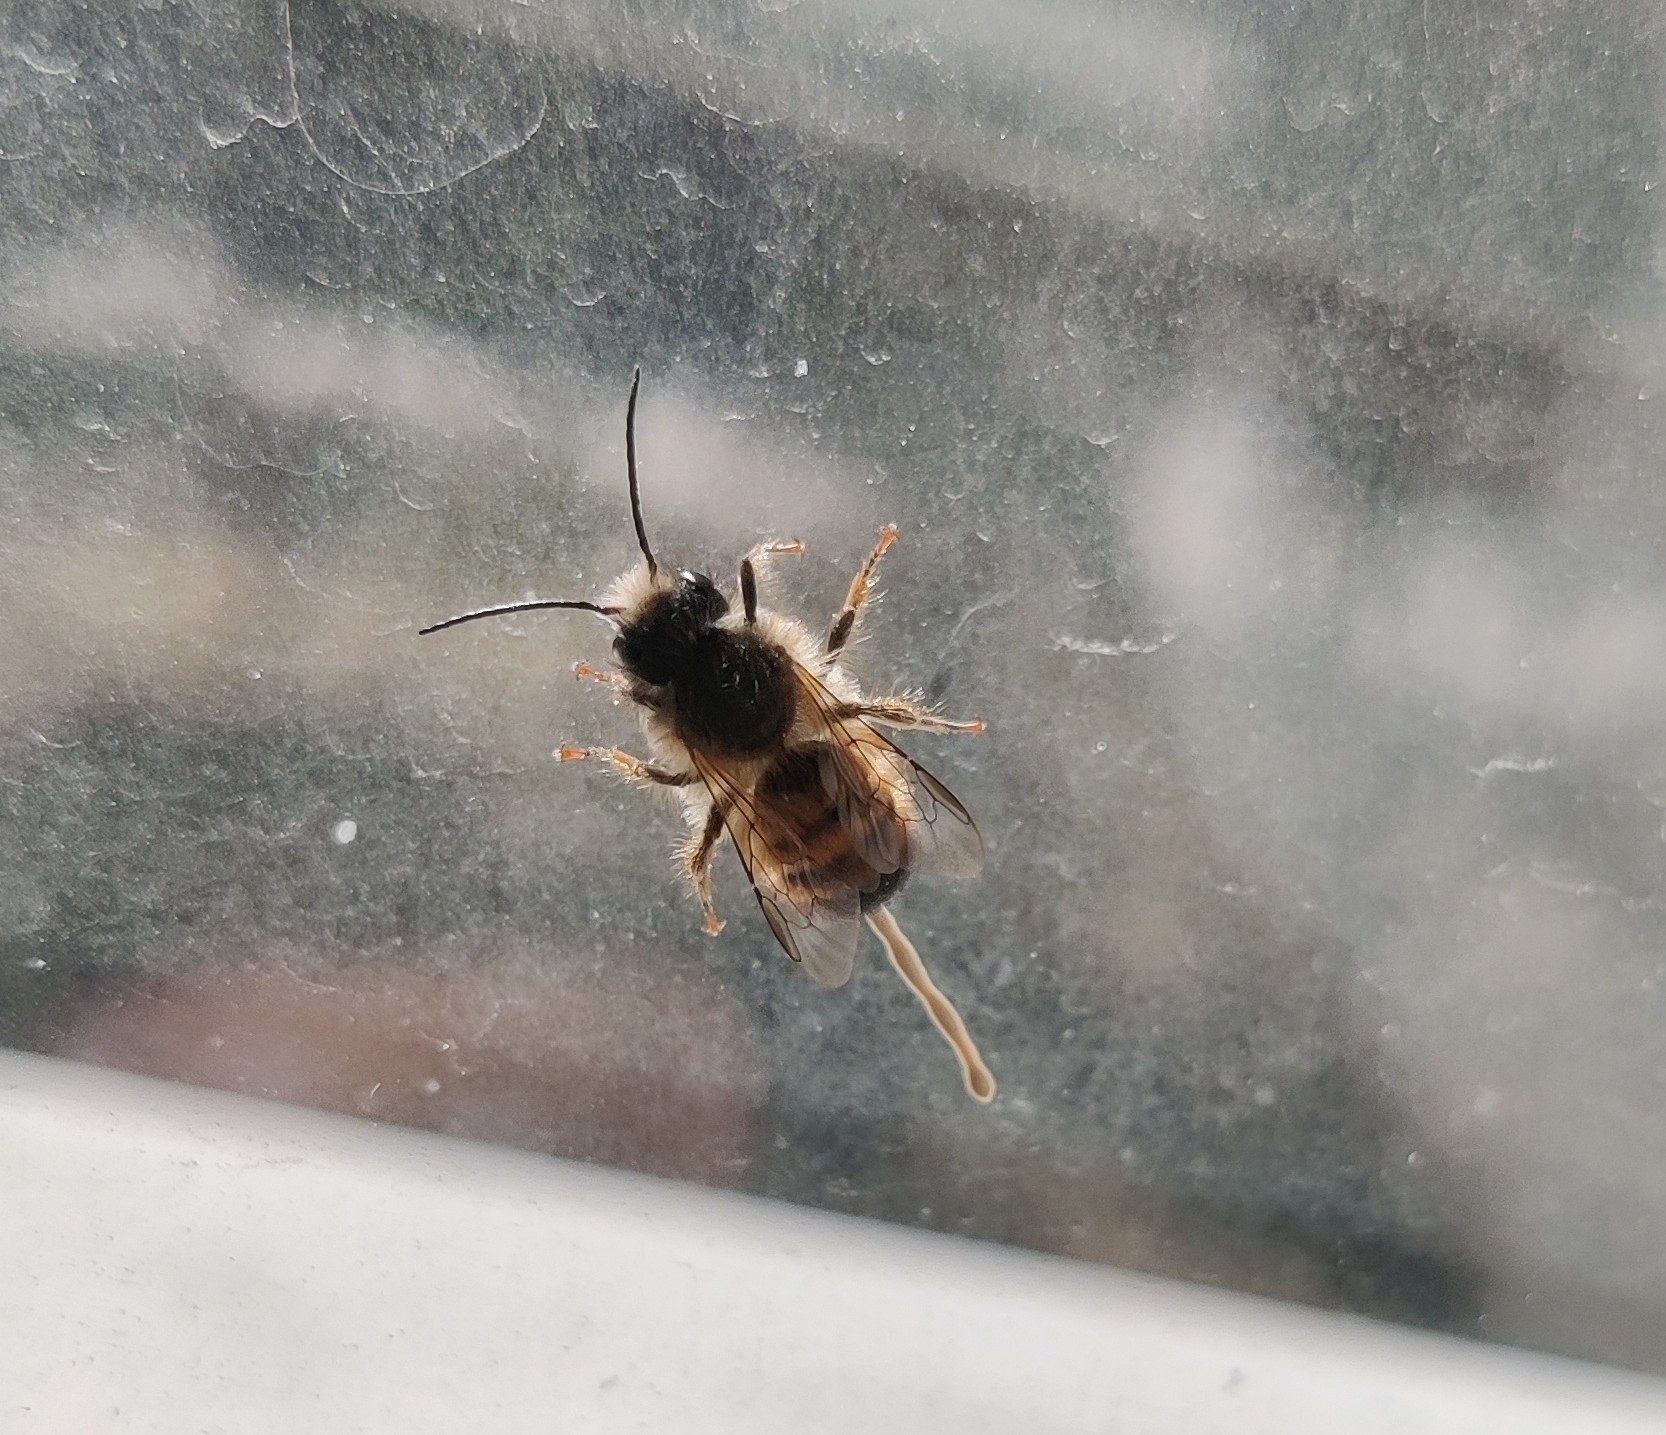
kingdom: Animalia
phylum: Arthropoda
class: Insecta
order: Hymenoptera
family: Megachilidae
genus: Osmia
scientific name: Osmia bicornis
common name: Red mason bee
